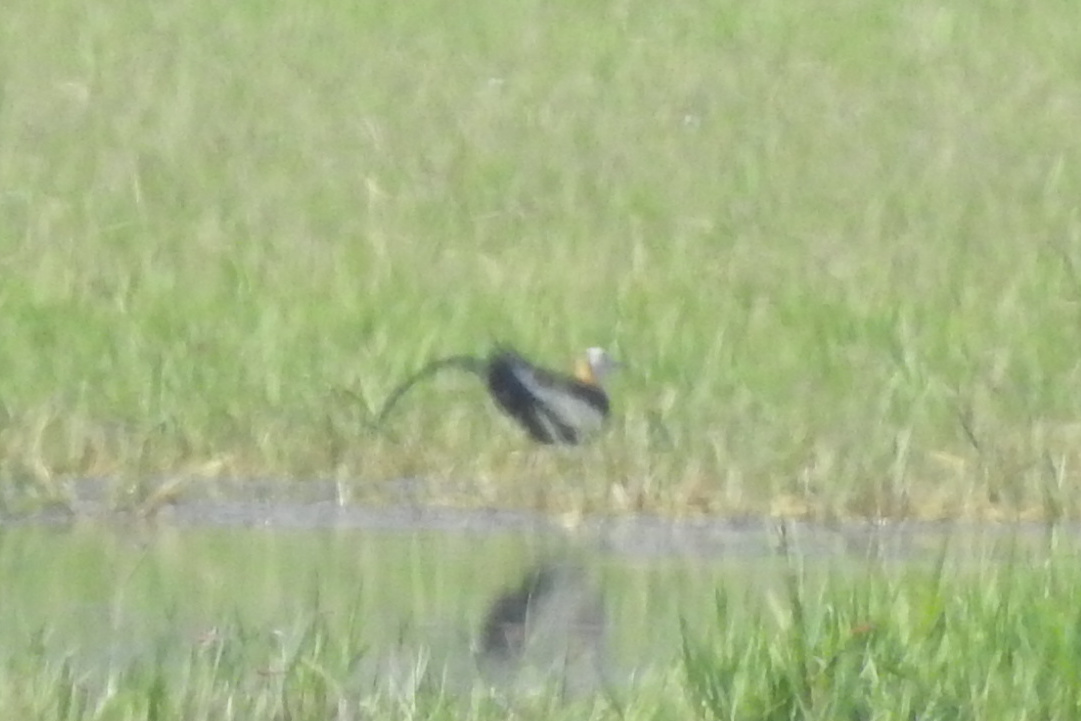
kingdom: Animalia
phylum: Chordata
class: Aves
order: Charadriiformes
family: Jacanidae
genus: Hydrophasianus
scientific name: Hydrophasianus chirurgus
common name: Pheasant-tailed jacana
